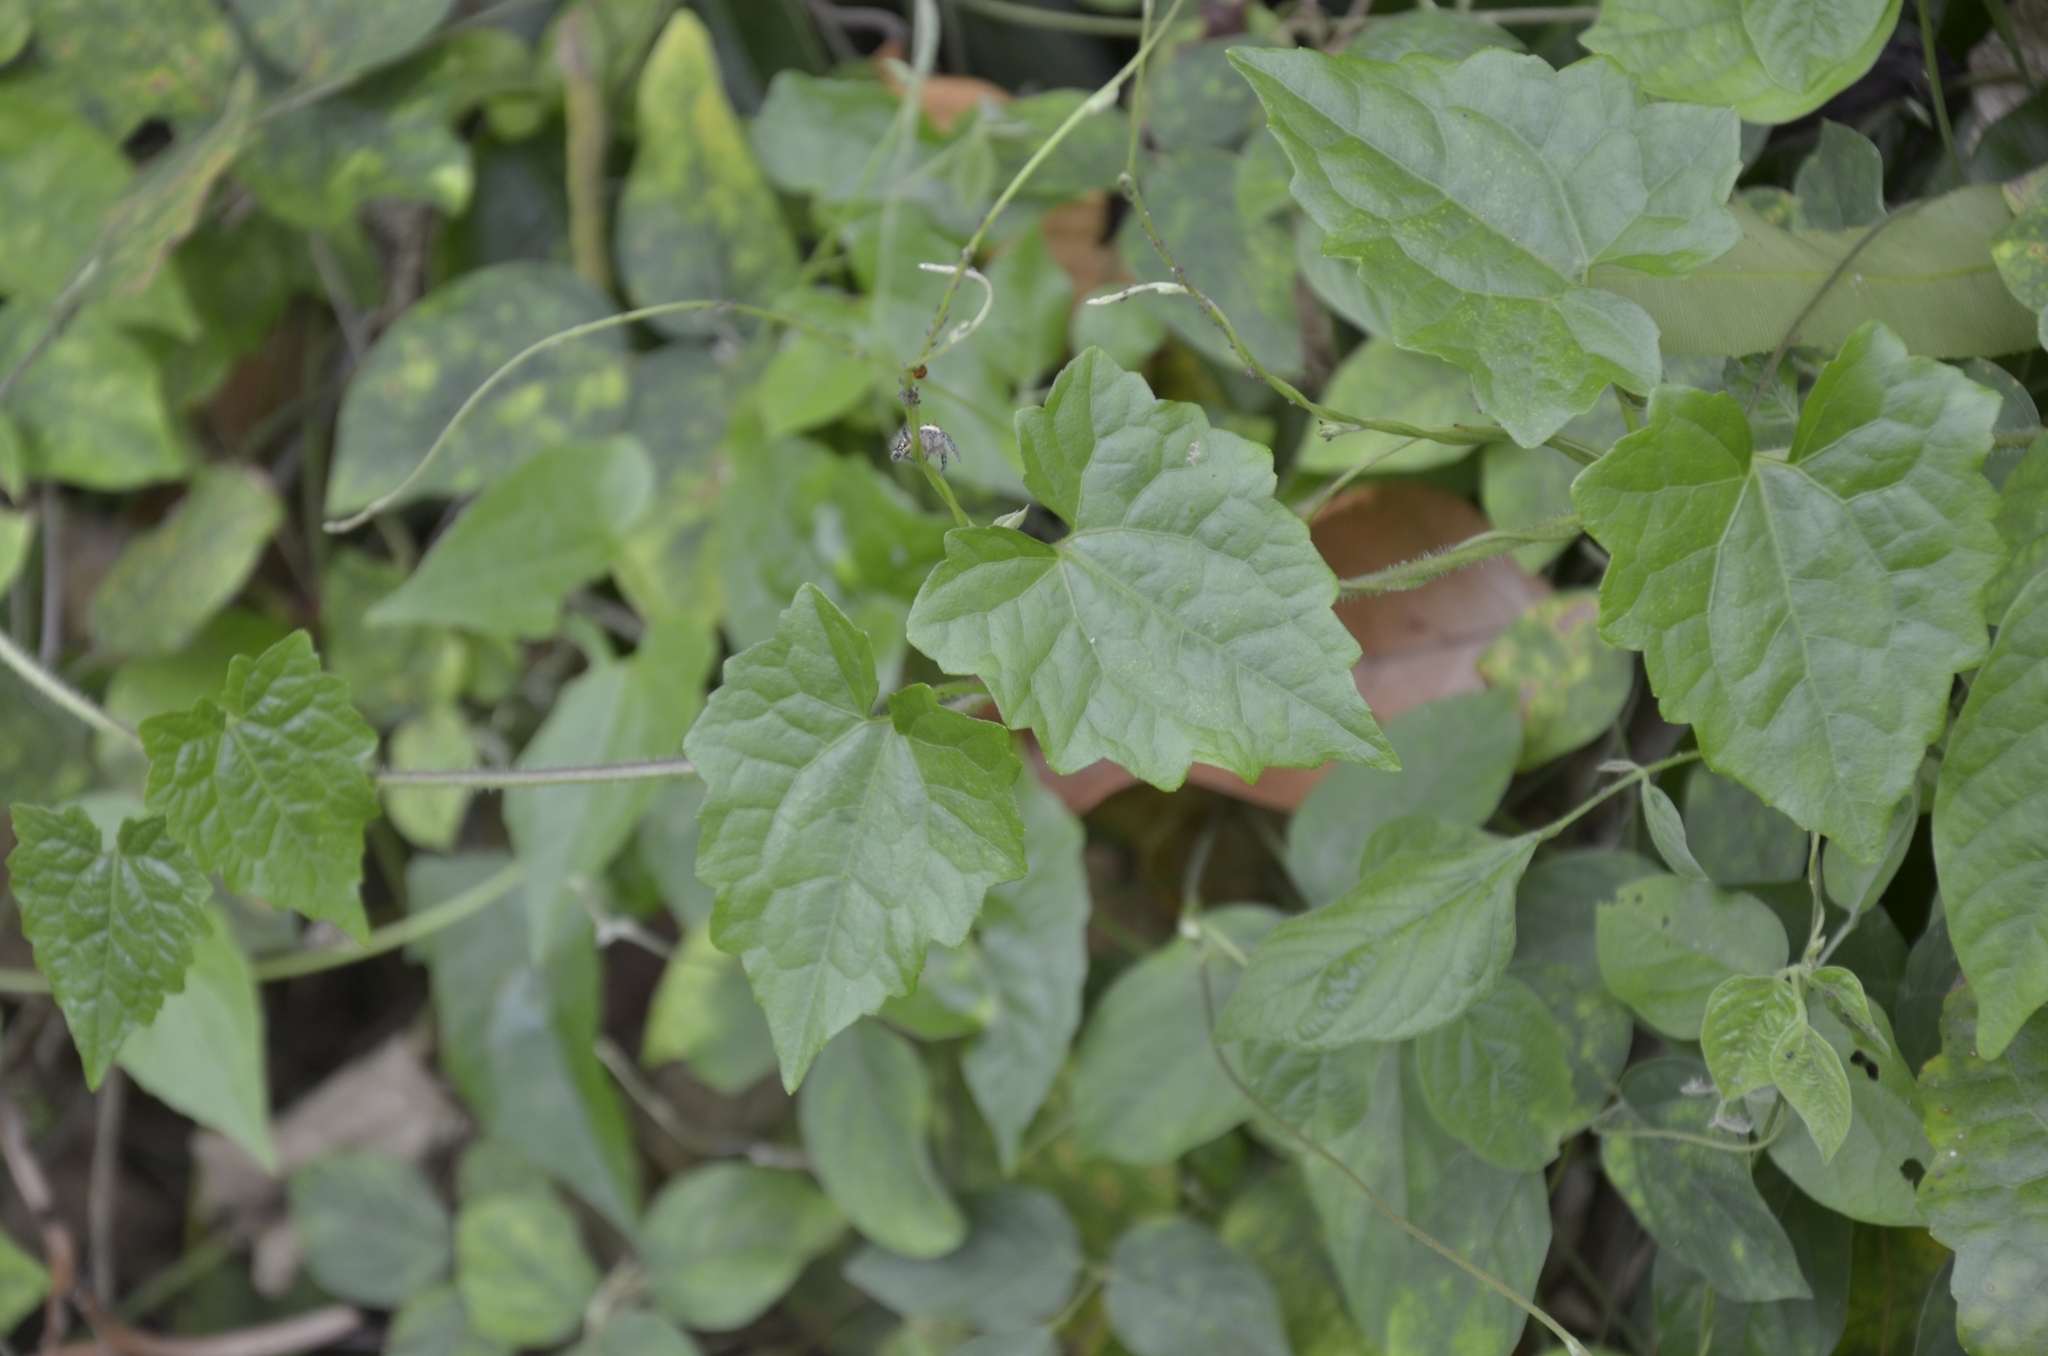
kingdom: Plantae
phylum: Tracheophyta
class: Magnoliopsida
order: Asterales
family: Asteraceae
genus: Mikania
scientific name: Mikania micrantha
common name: Mile-a-minute
